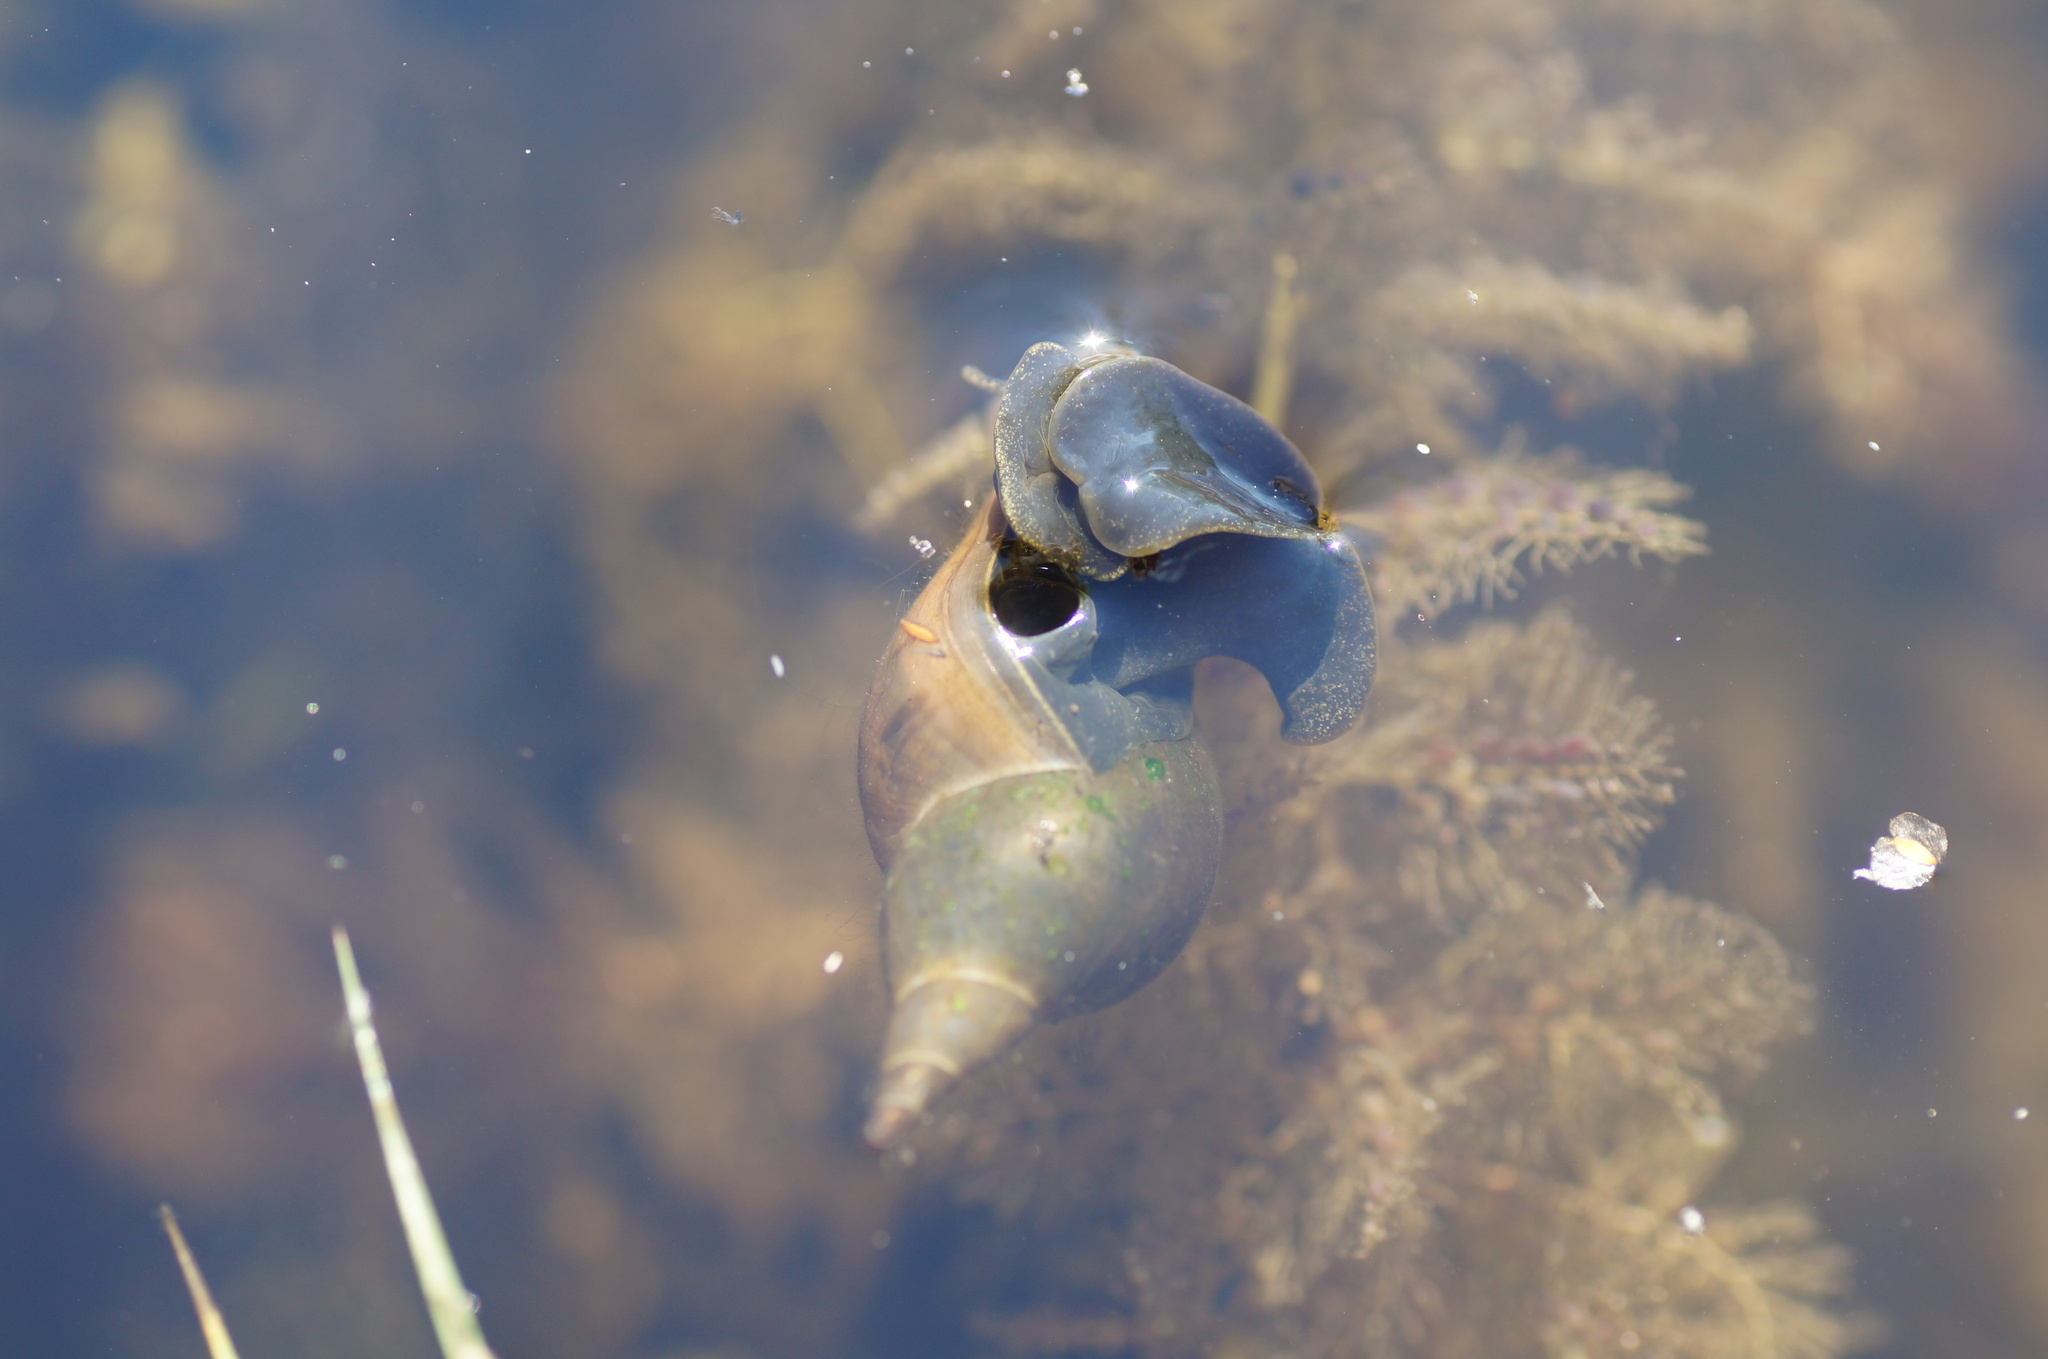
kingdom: Animalia
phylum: Mollusca
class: Gastropoda
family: Lymnaeidae
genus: Lymnaea
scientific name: Lymnaea stagnalis
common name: Great pond snail
